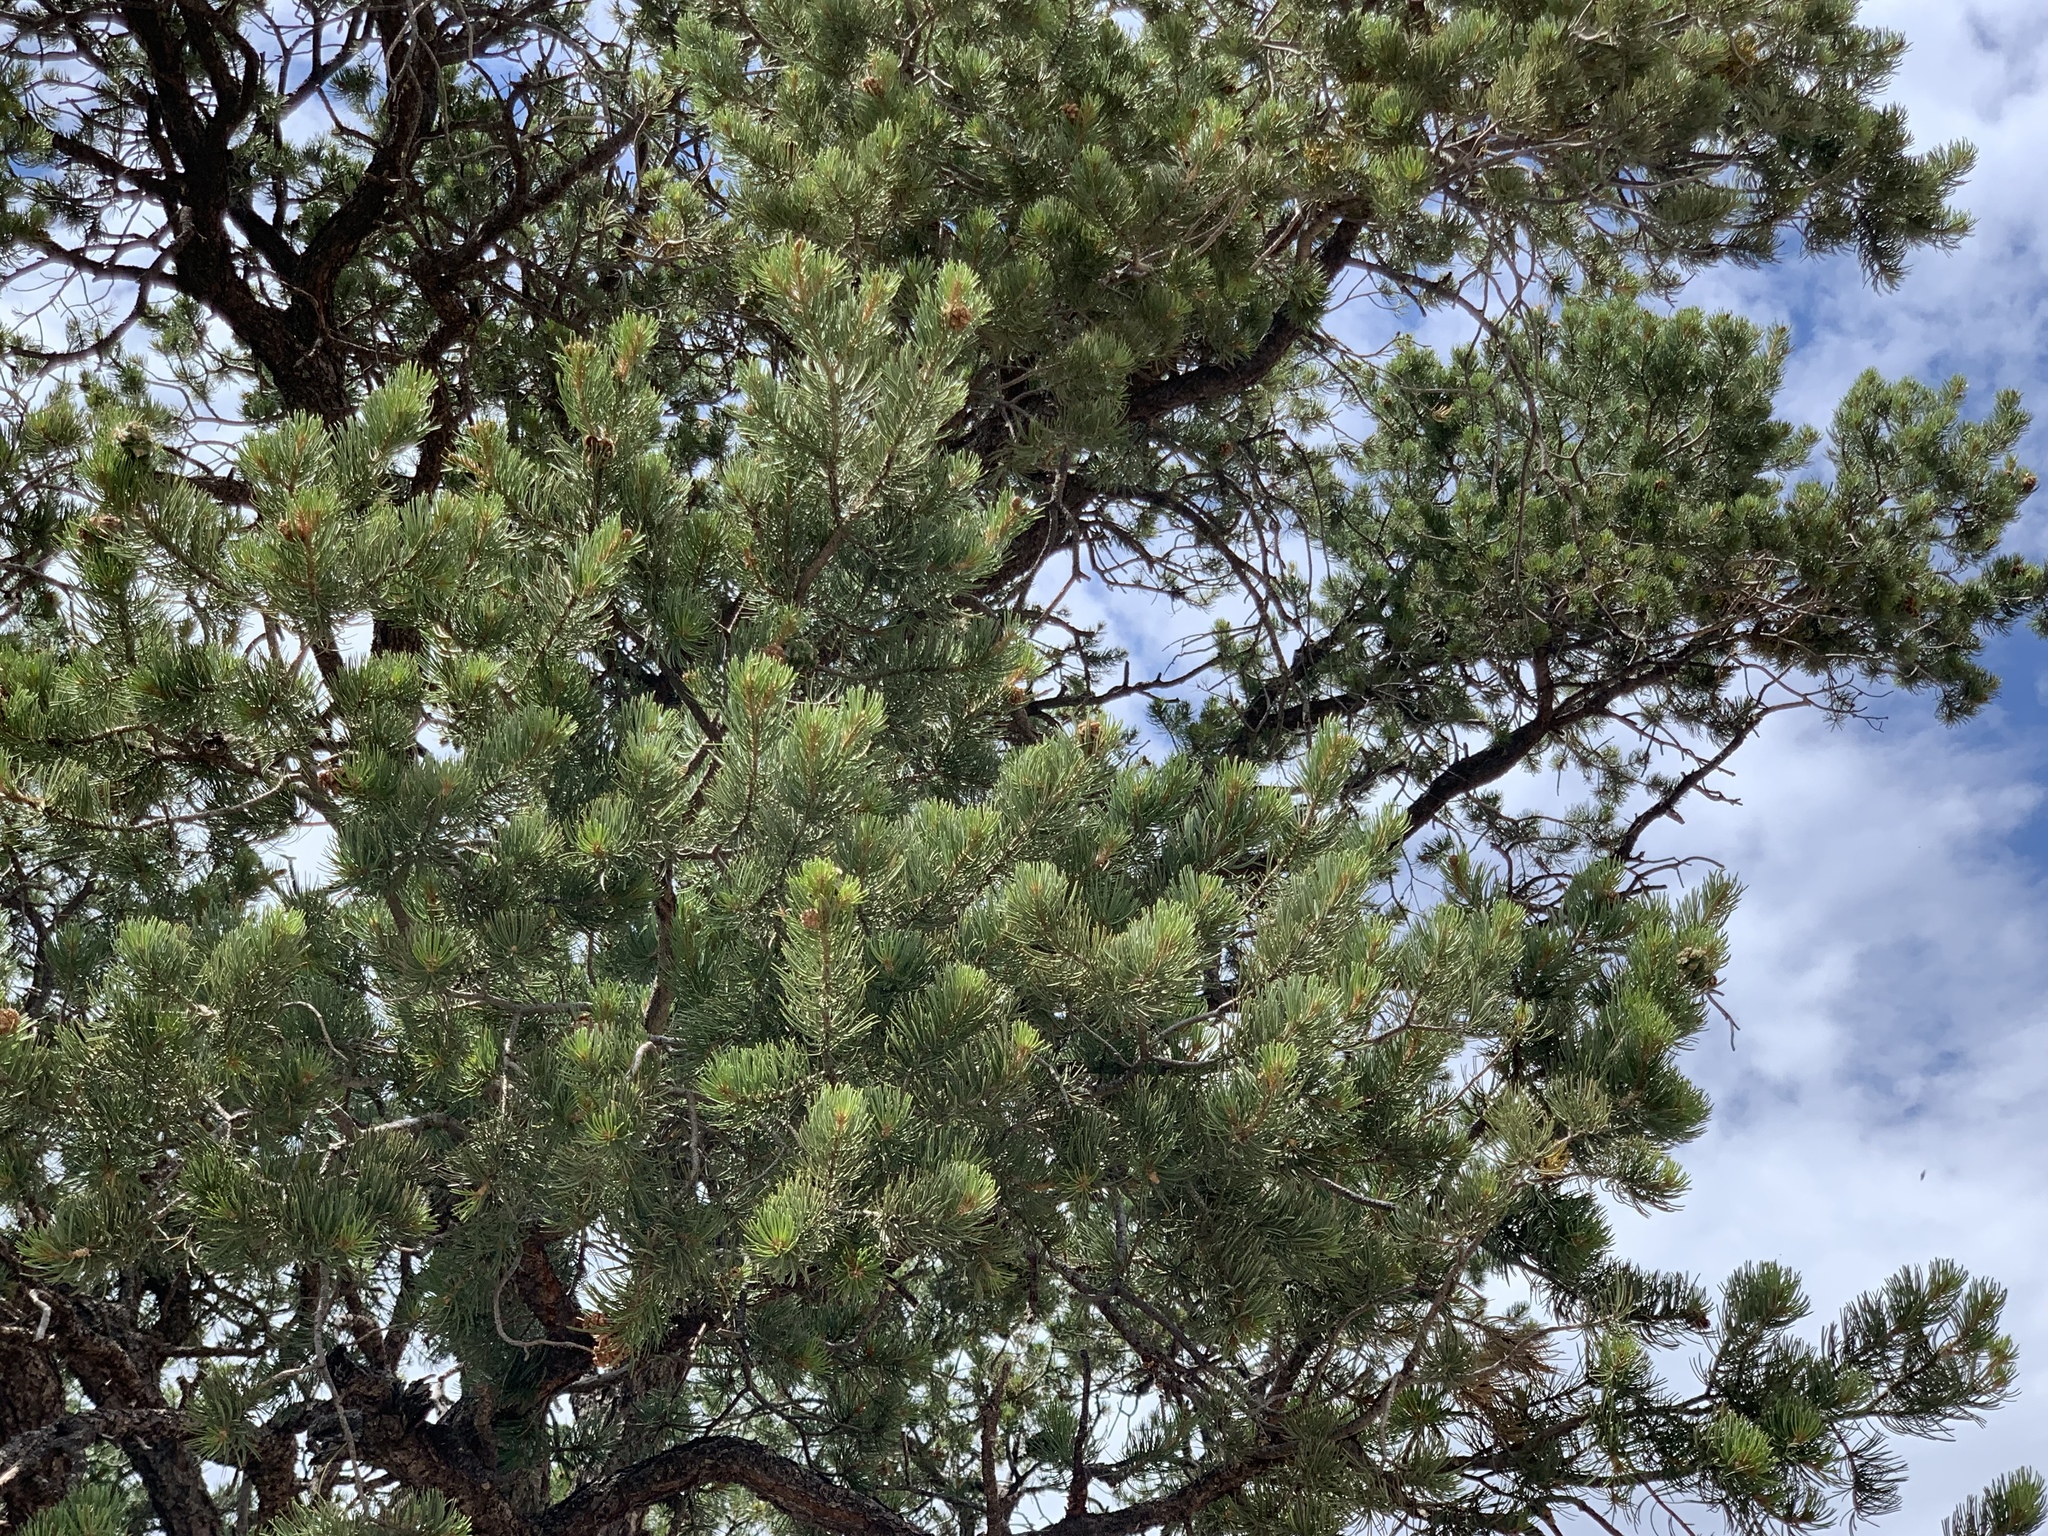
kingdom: Plantae
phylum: Tracheophyta
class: Pinopsida
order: Pinales
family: Pinaceae
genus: Pinus
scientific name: Pinus edulis
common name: Colorado pinyon
